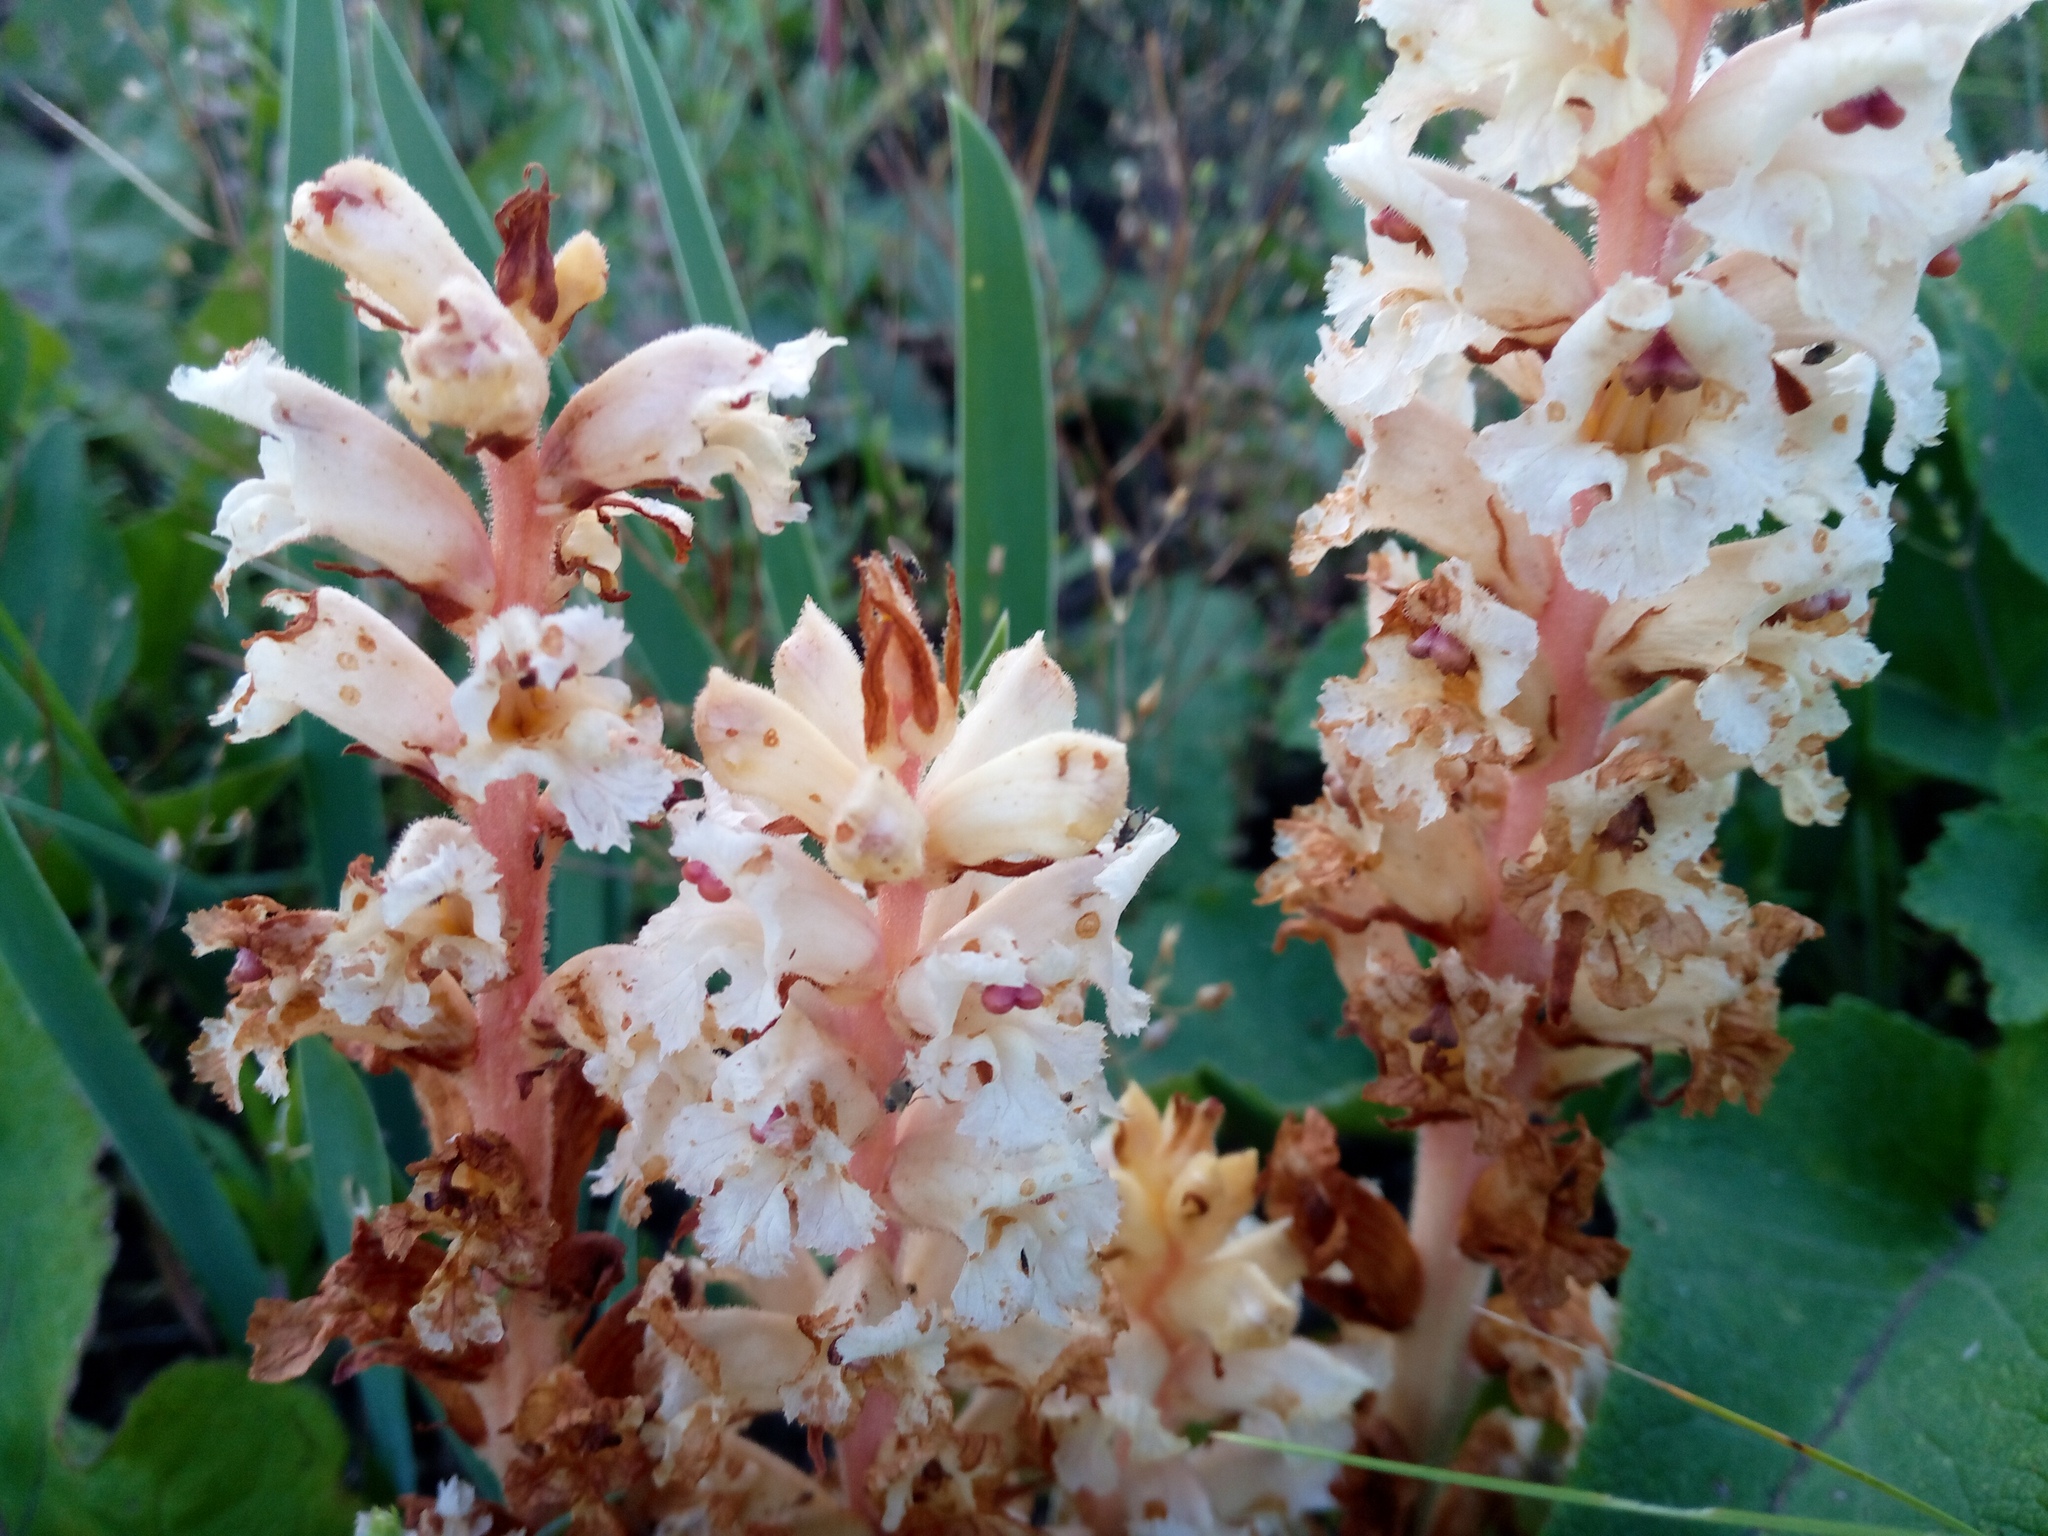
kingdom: Plantae
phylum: Tracheophyta
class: Magnoliopsida
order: Lamiales
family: Orobanchaceae
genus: Orobanche
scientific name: Orobanche alba
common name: Thyme broomrape
